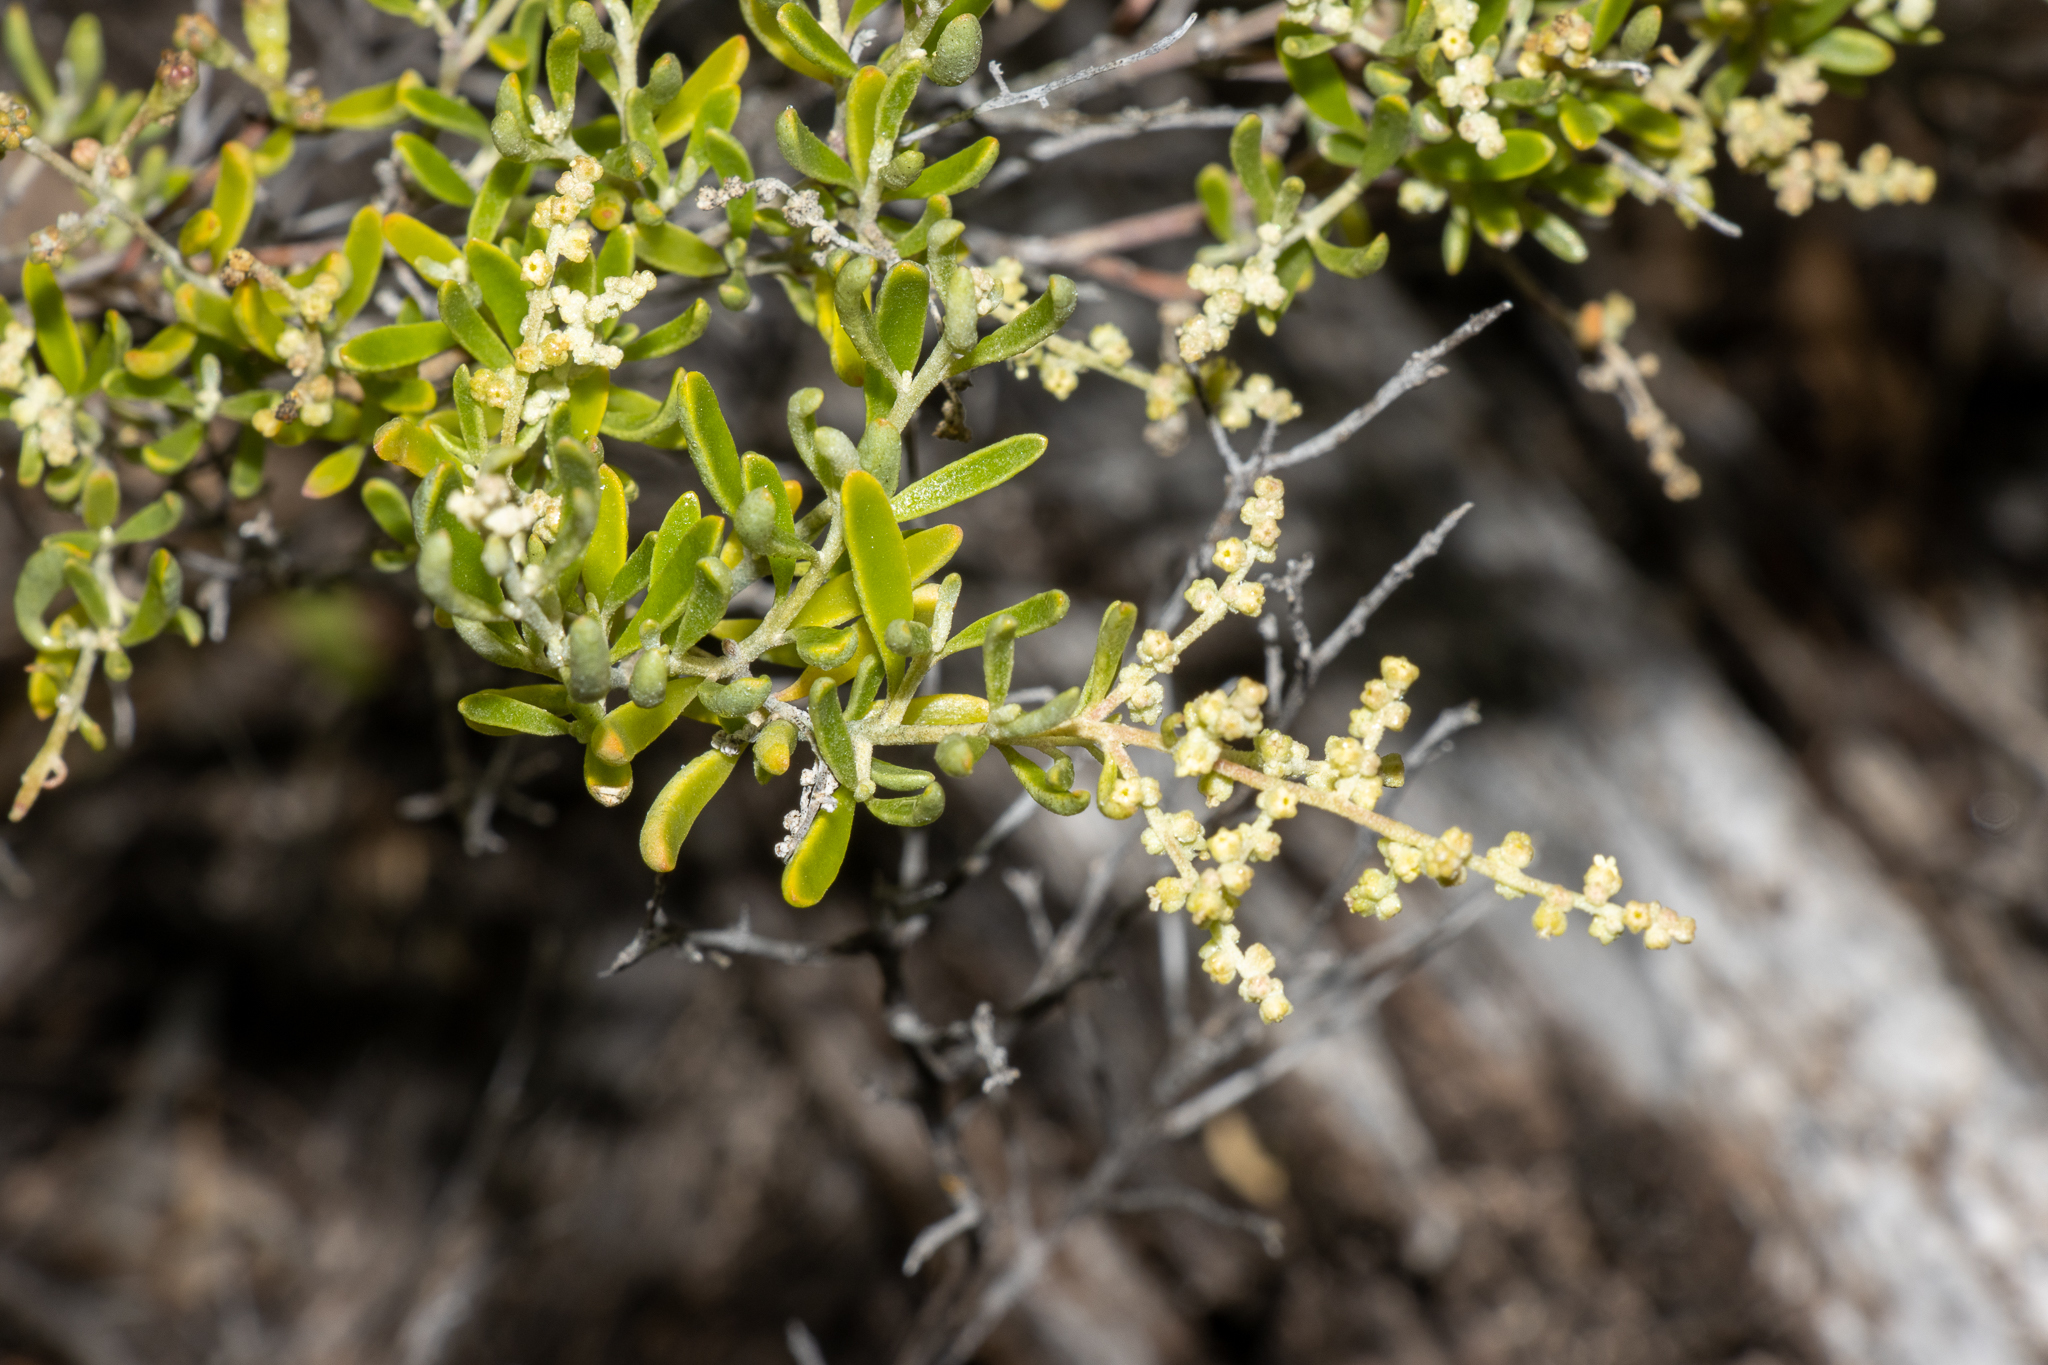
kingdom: Plantae
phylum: Tracheophyta
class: Magnoliopsida
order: Caryophyllales
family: Amaranthaceae
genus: Chenopodium
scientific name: Chenopodium wilsonii
